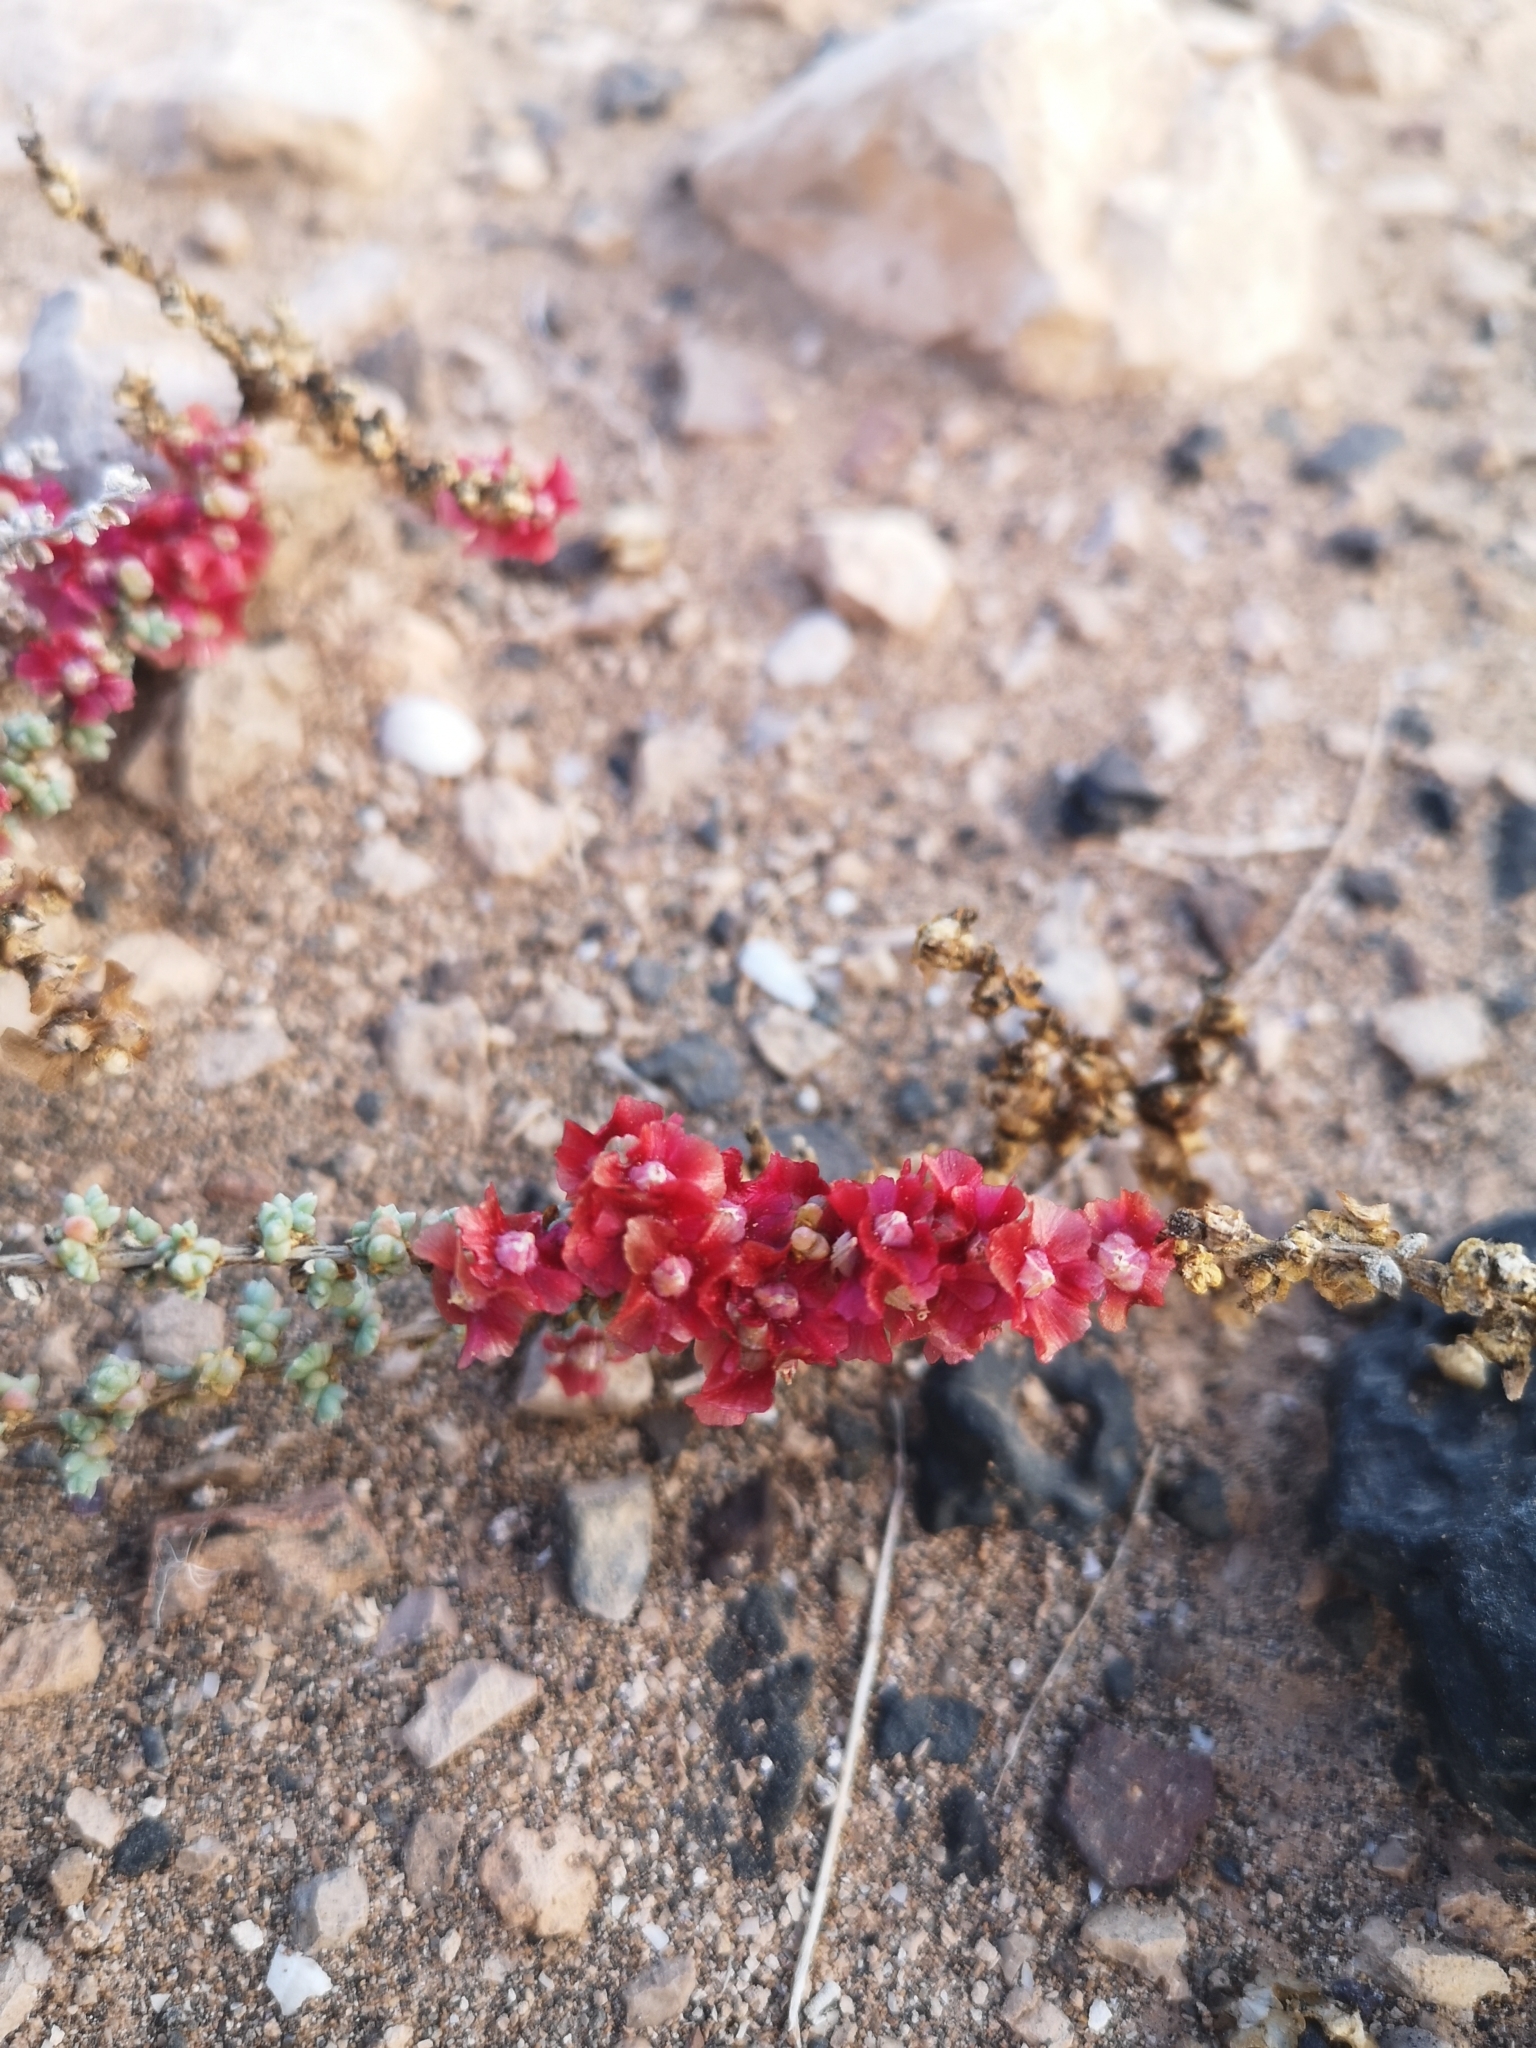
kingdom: Plantae
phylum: Tracheophyta
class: Magnoliopsida
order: Caryophyllales
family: Amaranthaceae
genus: Nitrosalsola
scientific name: Nitrosalsola vermiculata
